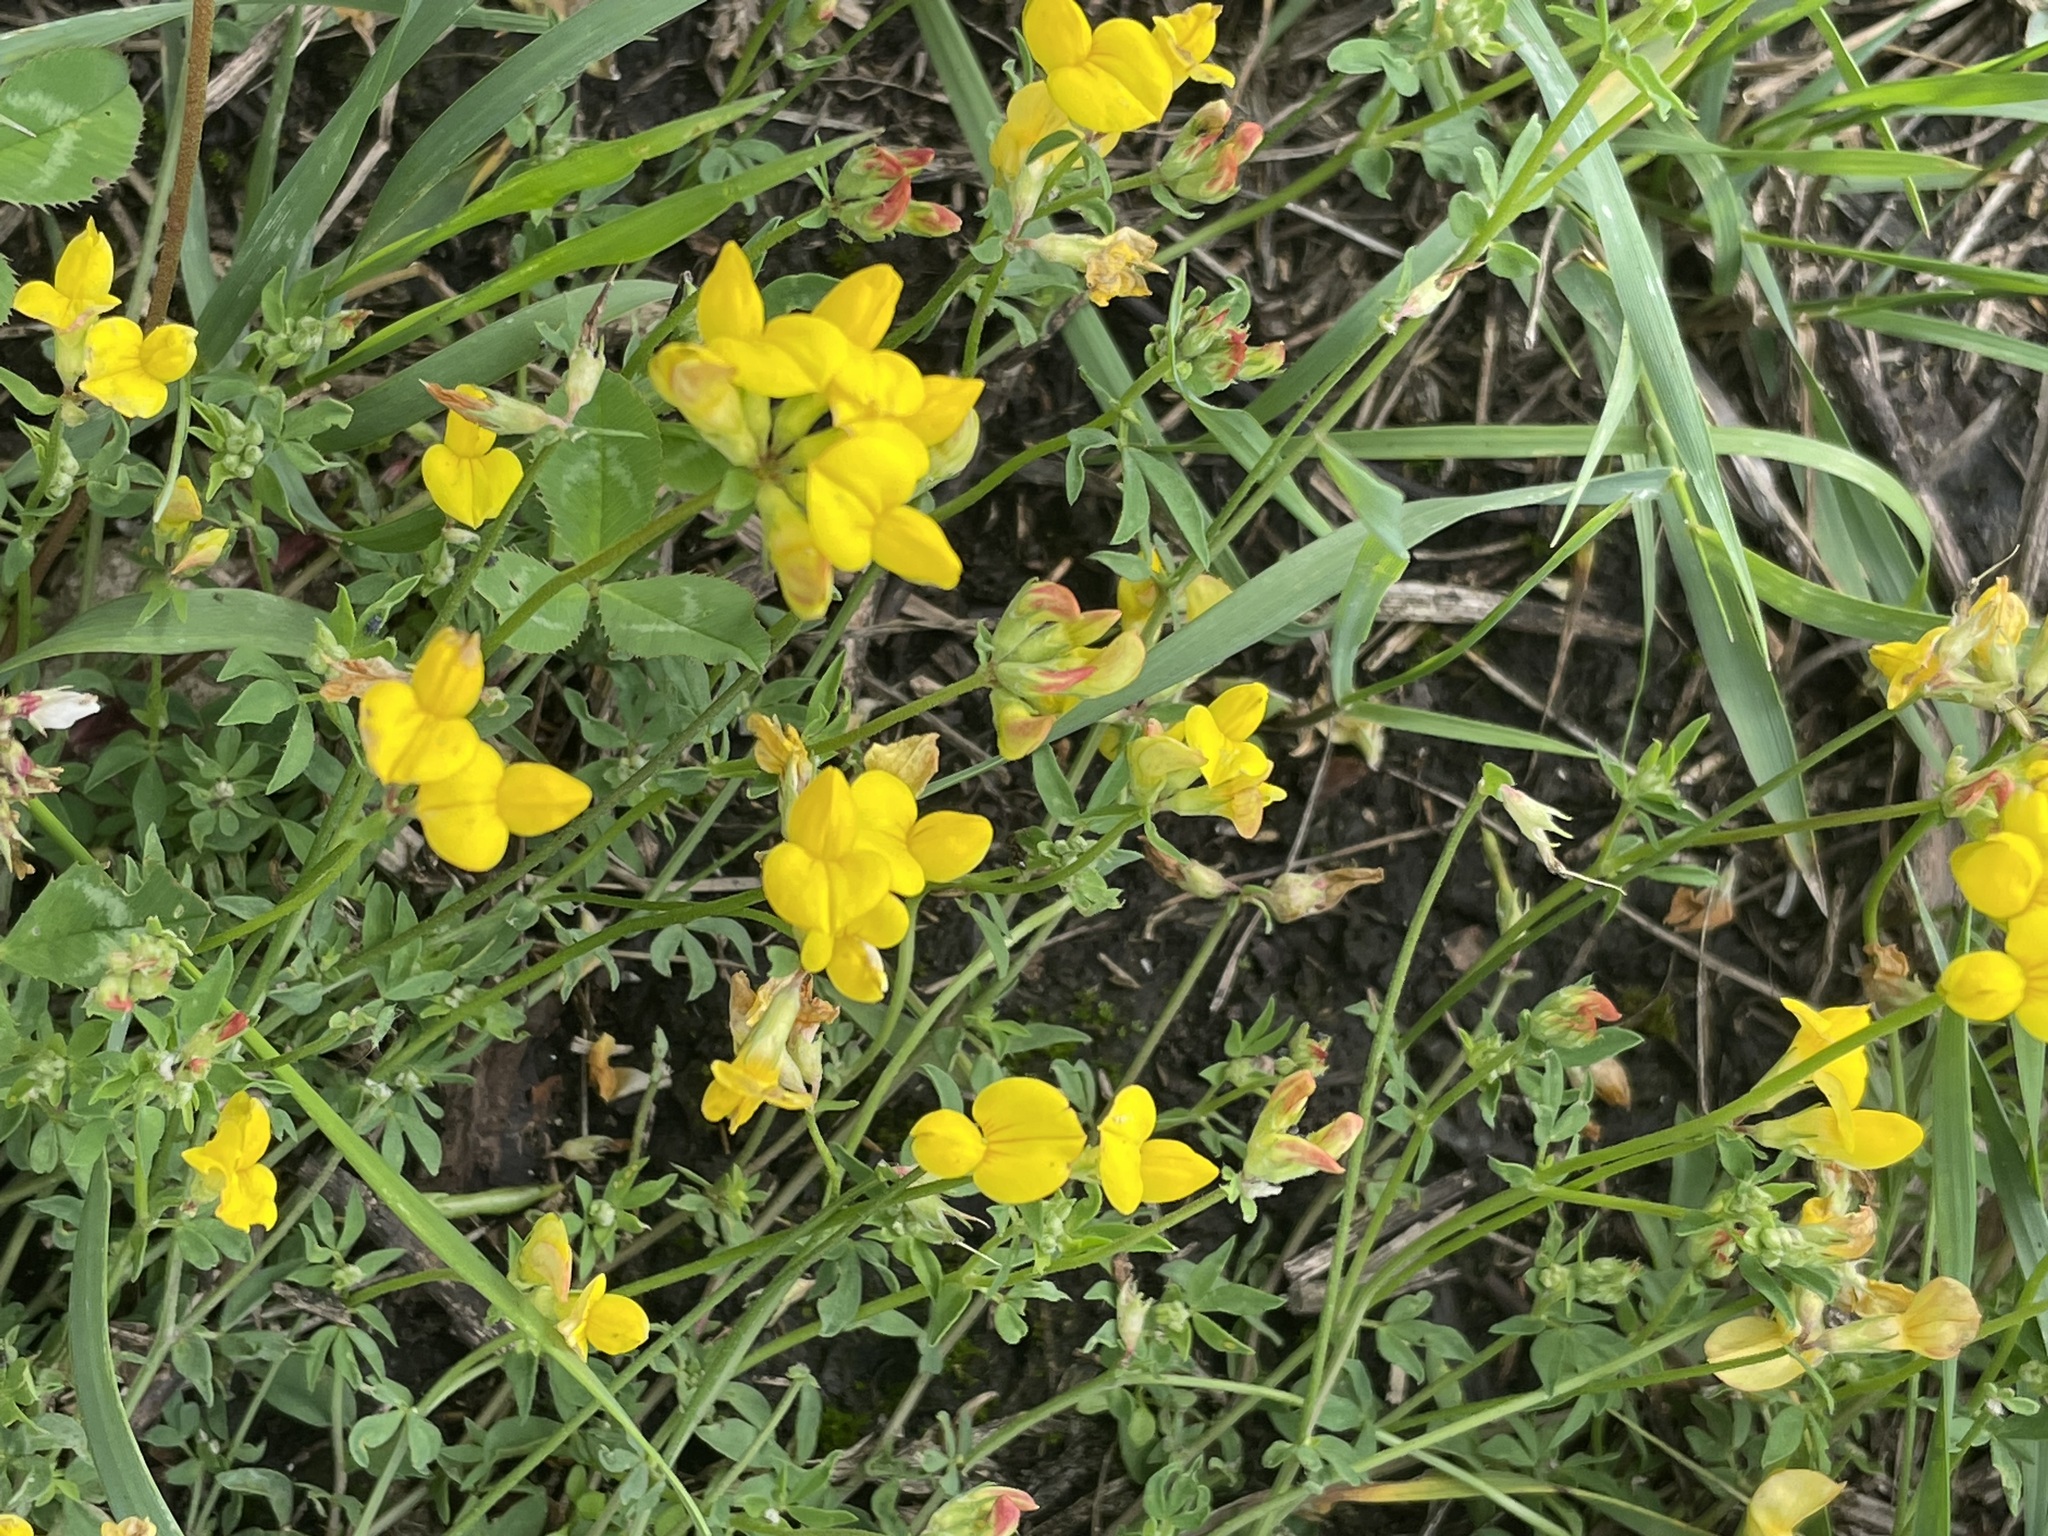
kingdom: Plantae
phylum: Tracheophyta
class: Magnoliopsida
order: Fabales
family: Fabaceae
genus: Lotus
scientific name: Lotus corniculatus
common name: Common bird's-foot-trefoil
